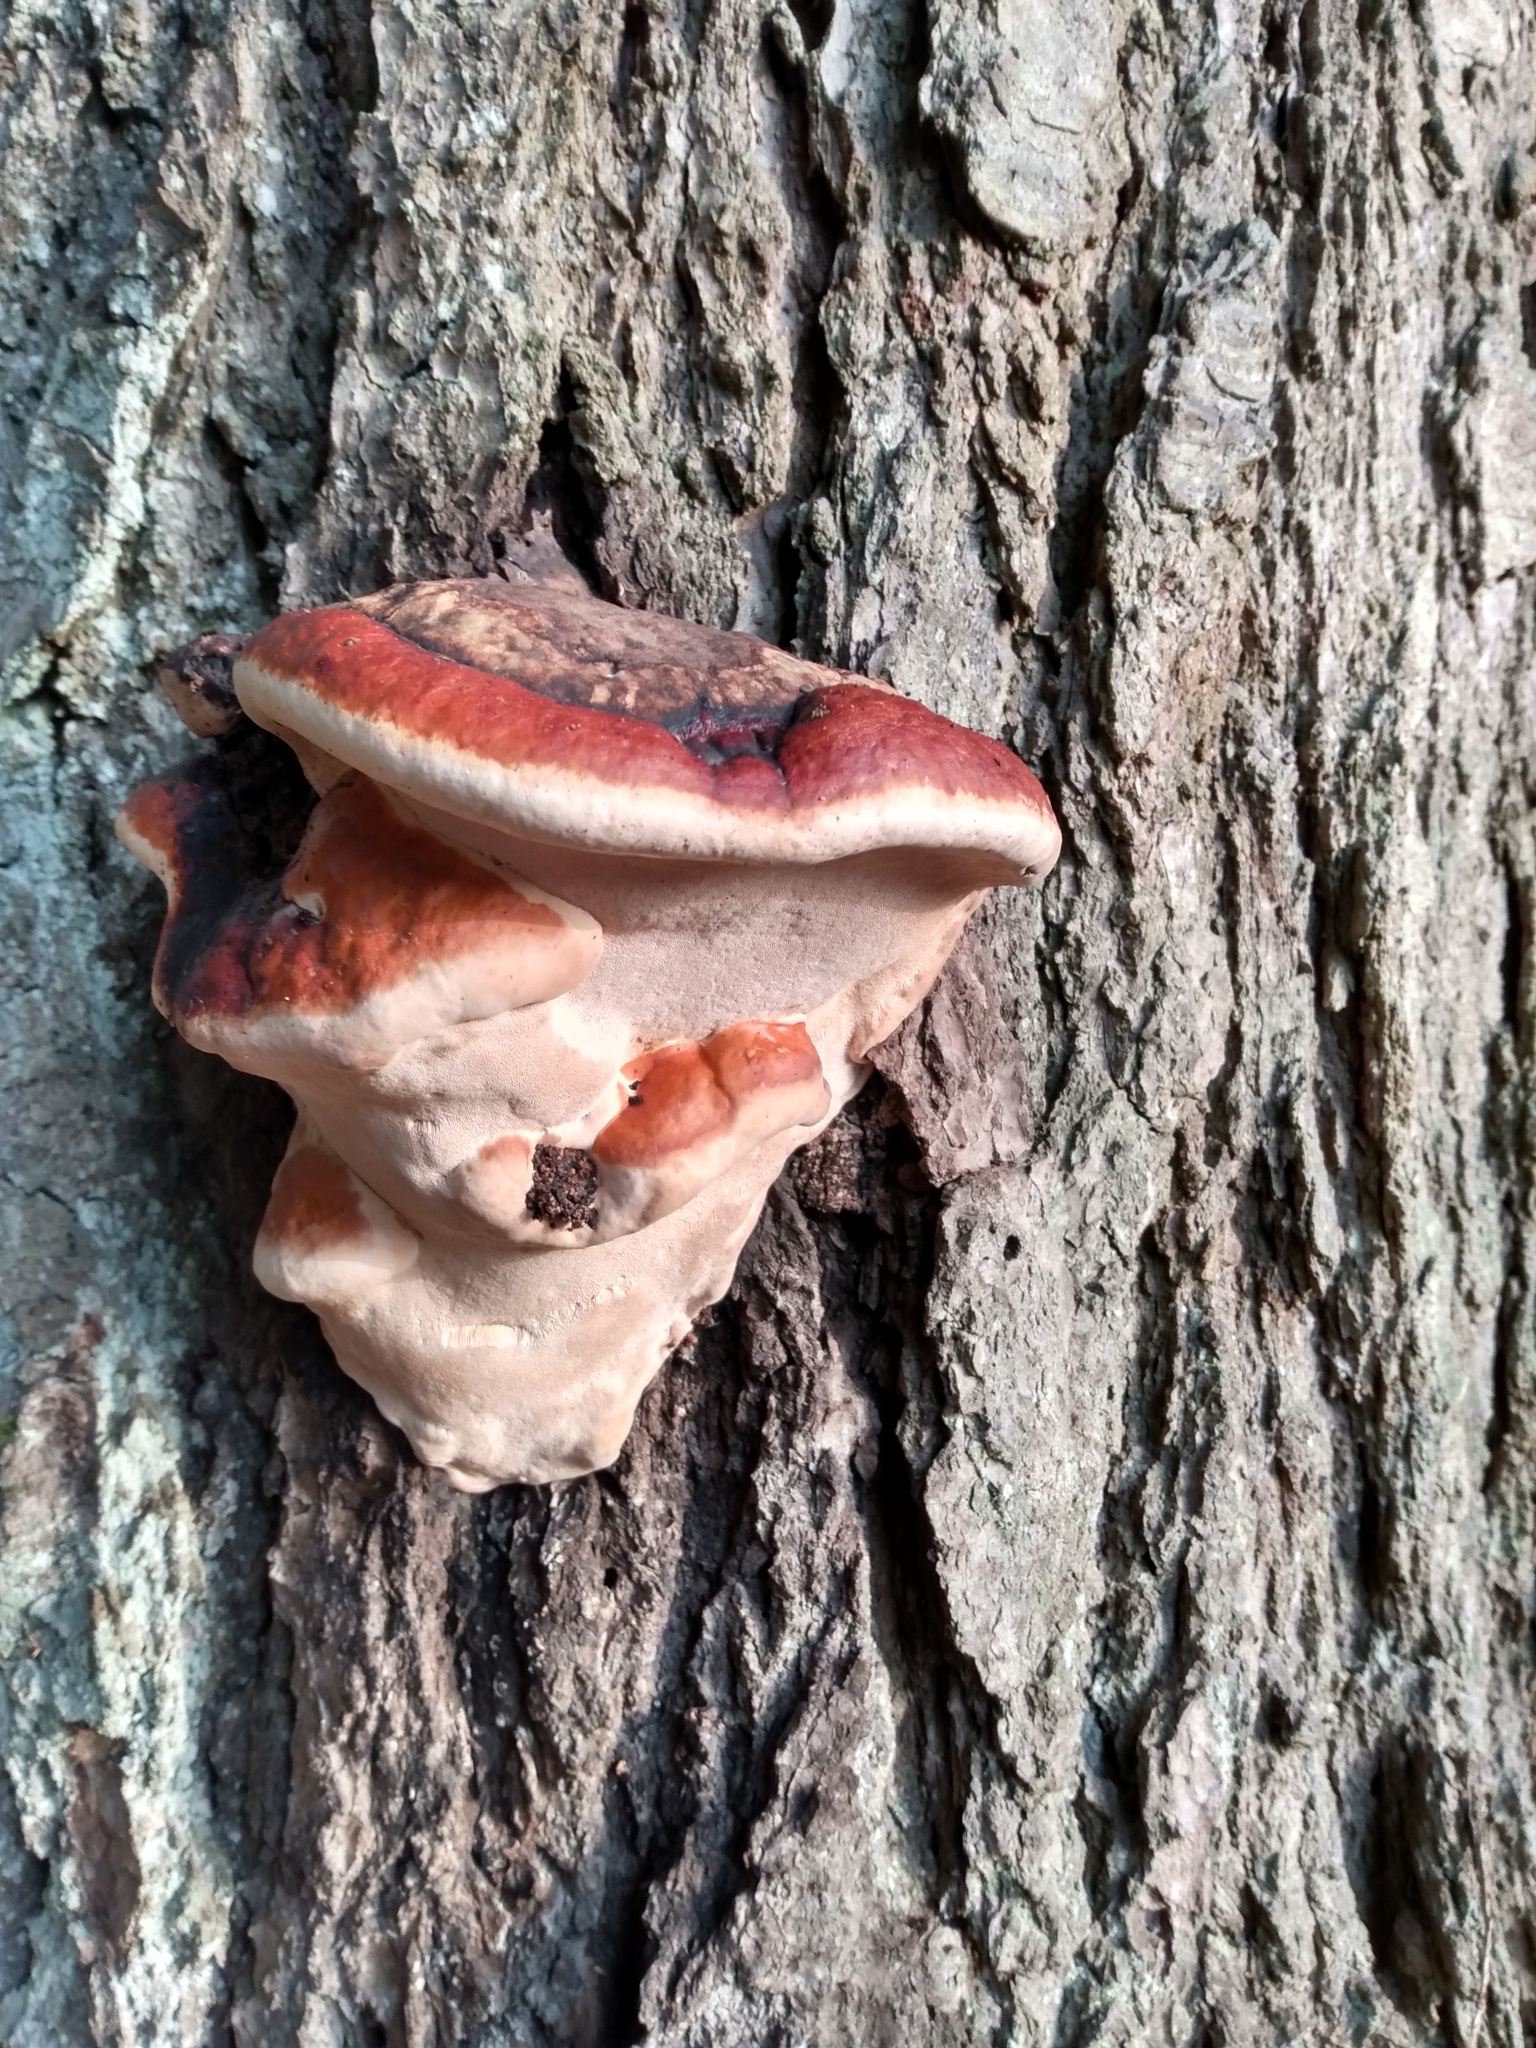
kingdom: Fungi
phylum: Basidiomycota
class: Agaricomycetes
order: Polyporales
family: Fomitopsidaceae
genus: Fomitopsis
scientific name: Fomitopsis mounceae
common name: Northern red belt
